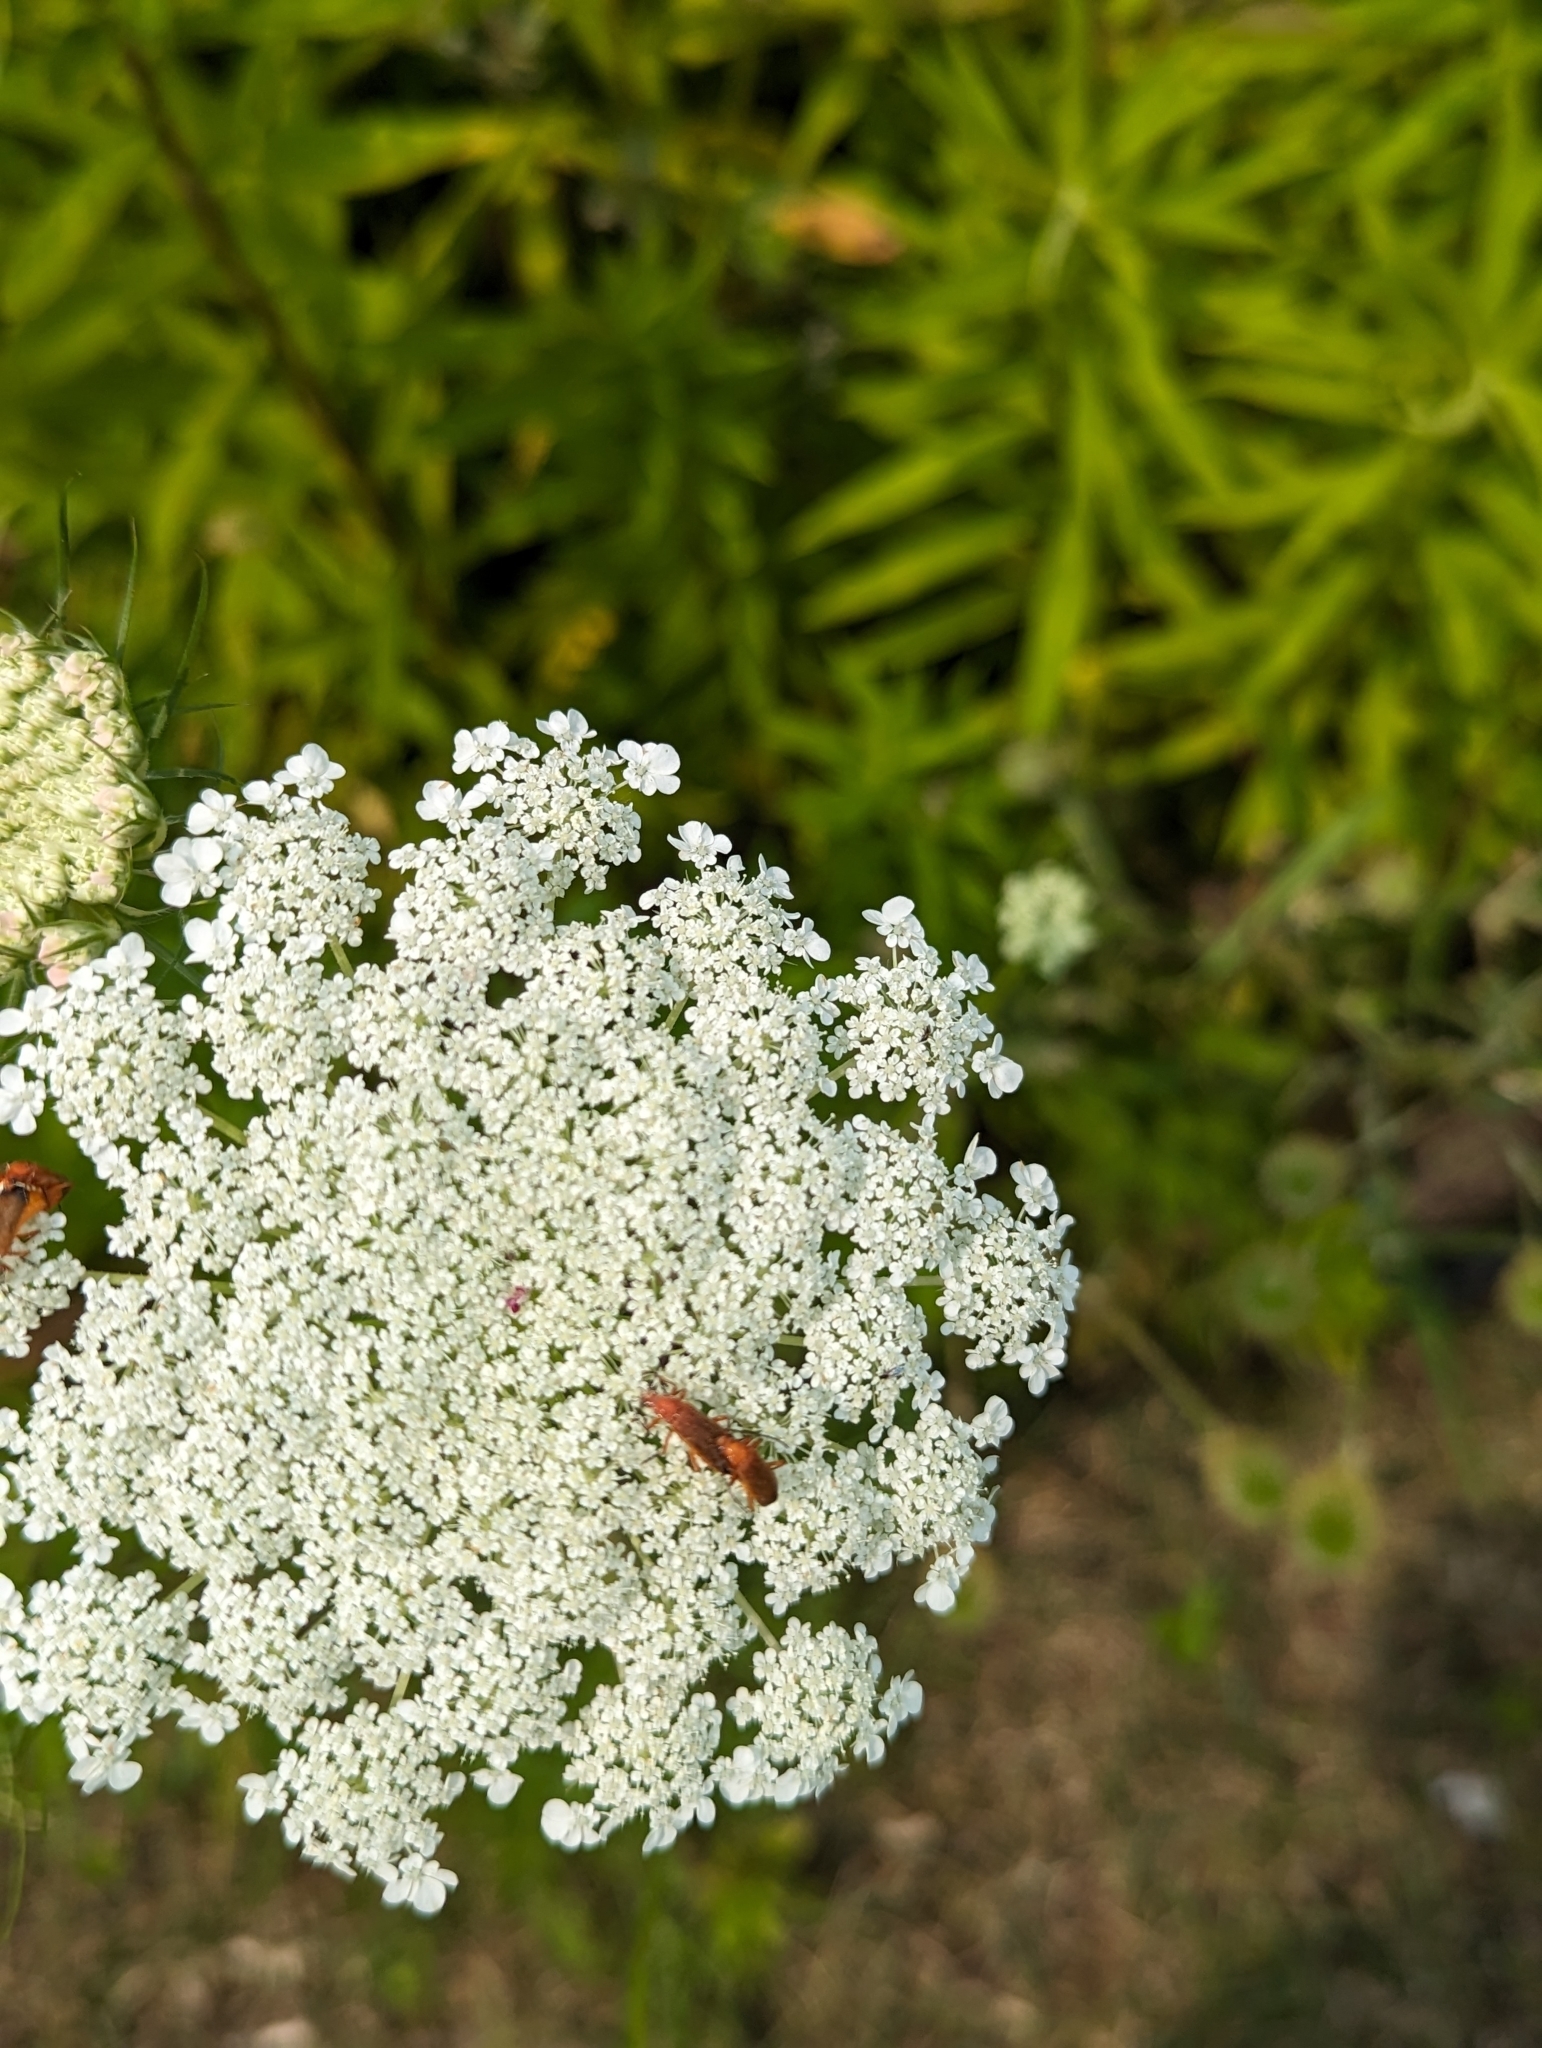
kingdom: Animalia
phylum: Arthropoda
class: Insecta
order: Coleoptera
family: Cantharidae
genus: Rhagonycha
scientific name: Rhagonycha fulva
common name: Common red soldier beetle
